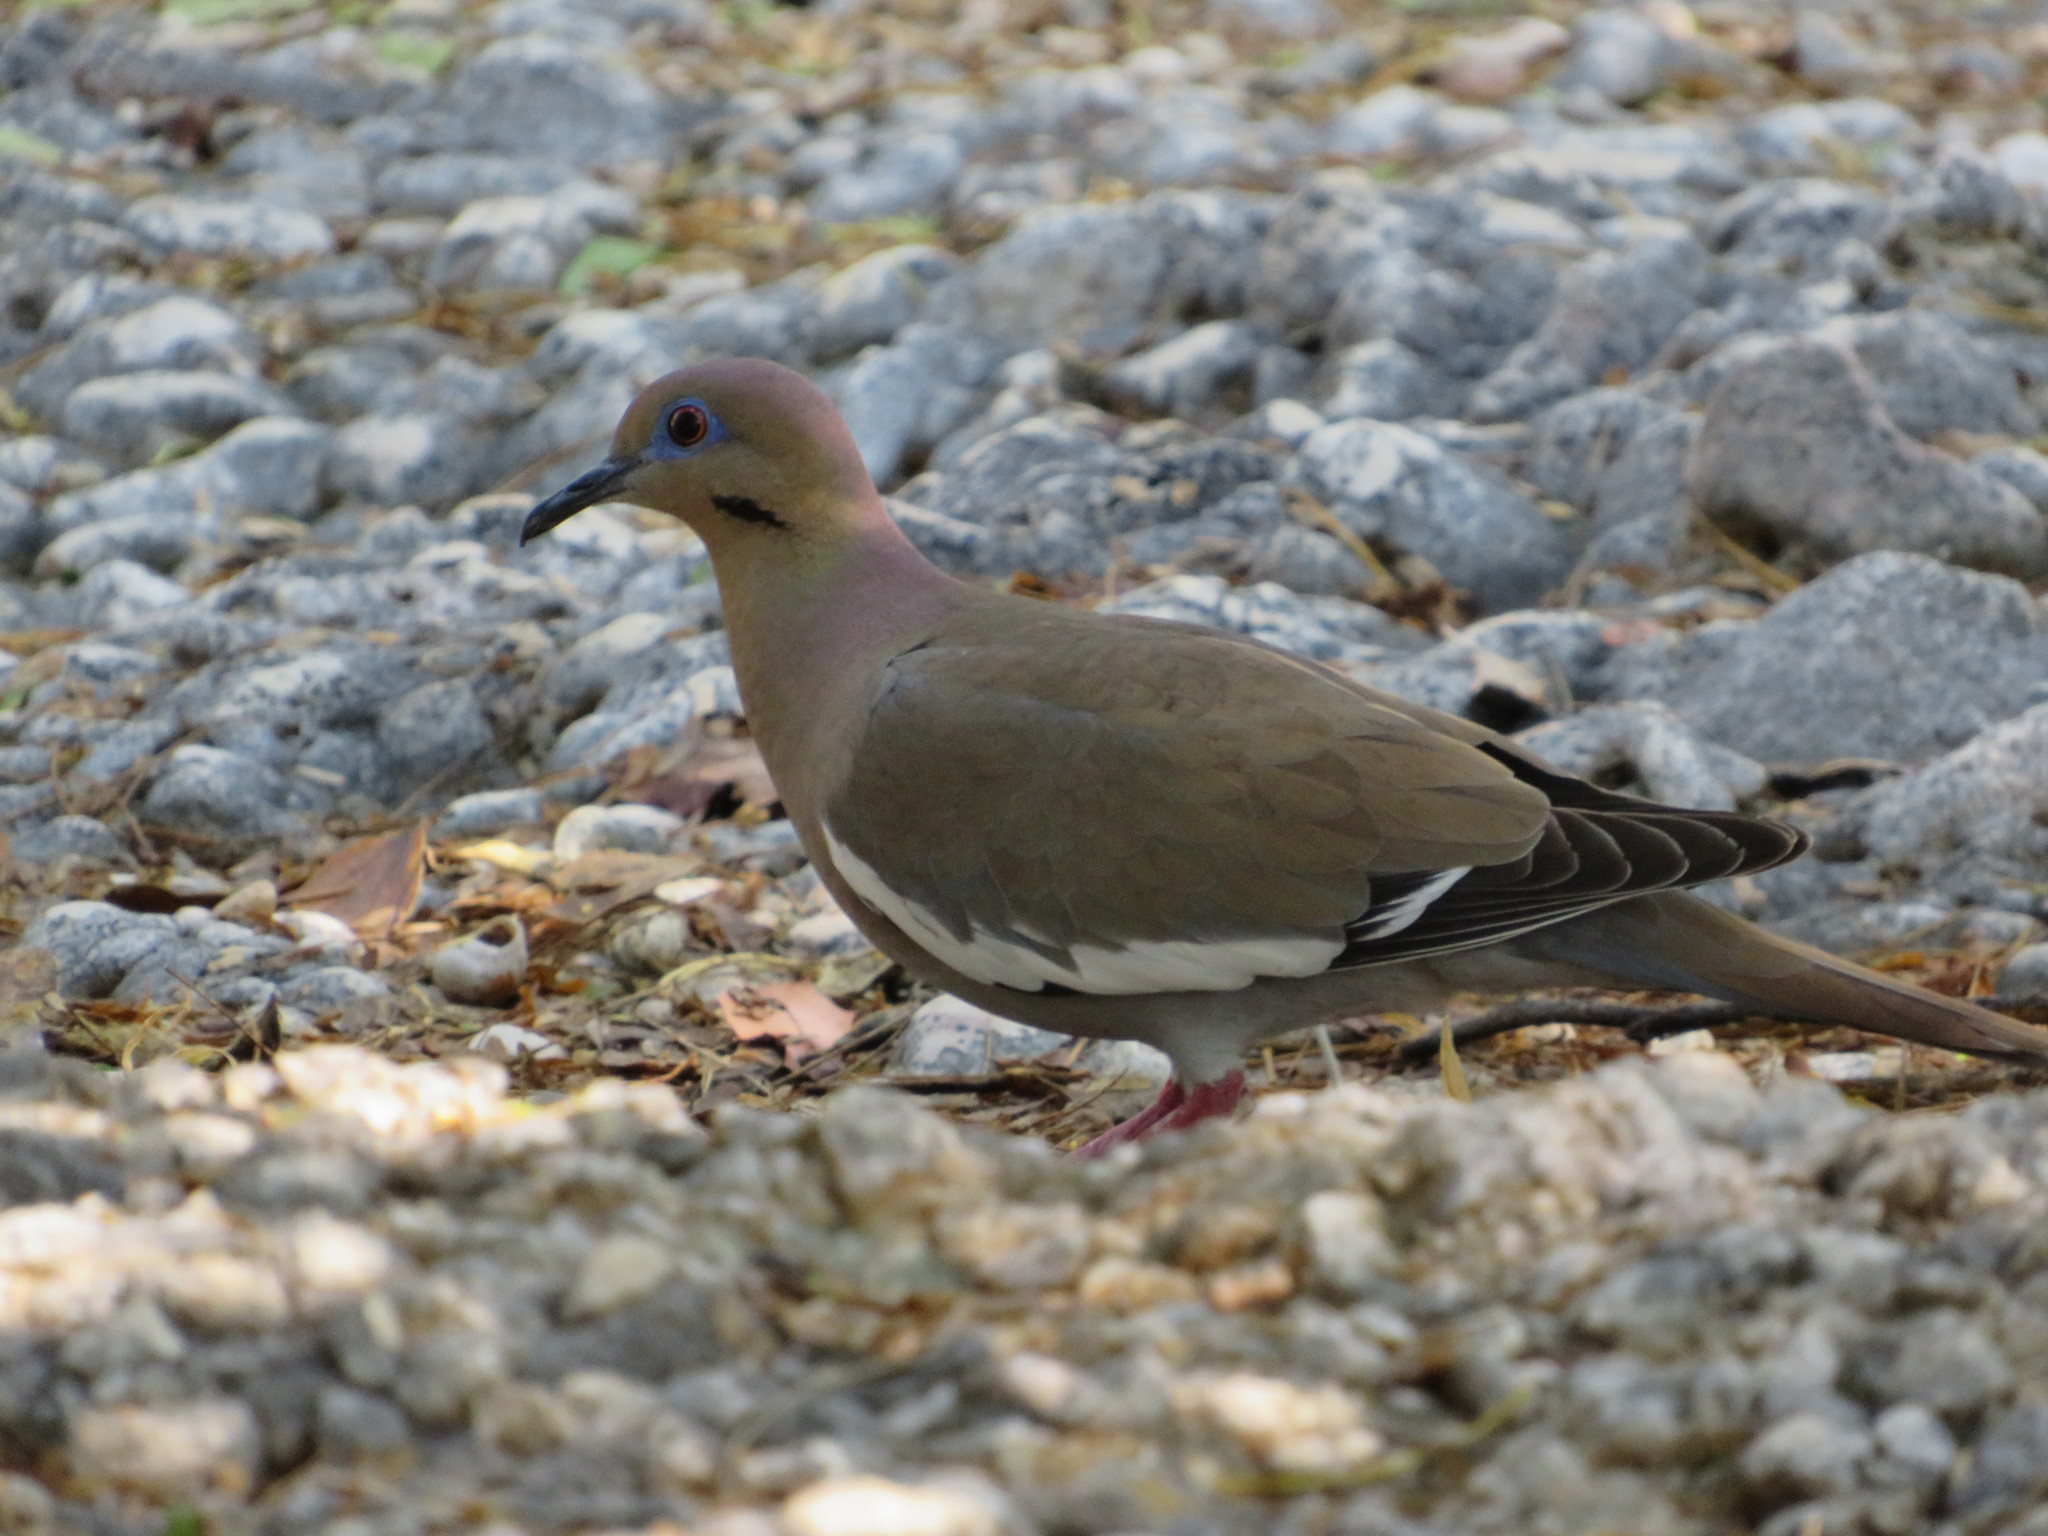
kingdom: Animalia
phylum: Chordata
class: Aves
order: Columbiformes
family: Columbidae
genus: Zenaida
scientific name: Zenaida asiatica
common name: White-winged dove
